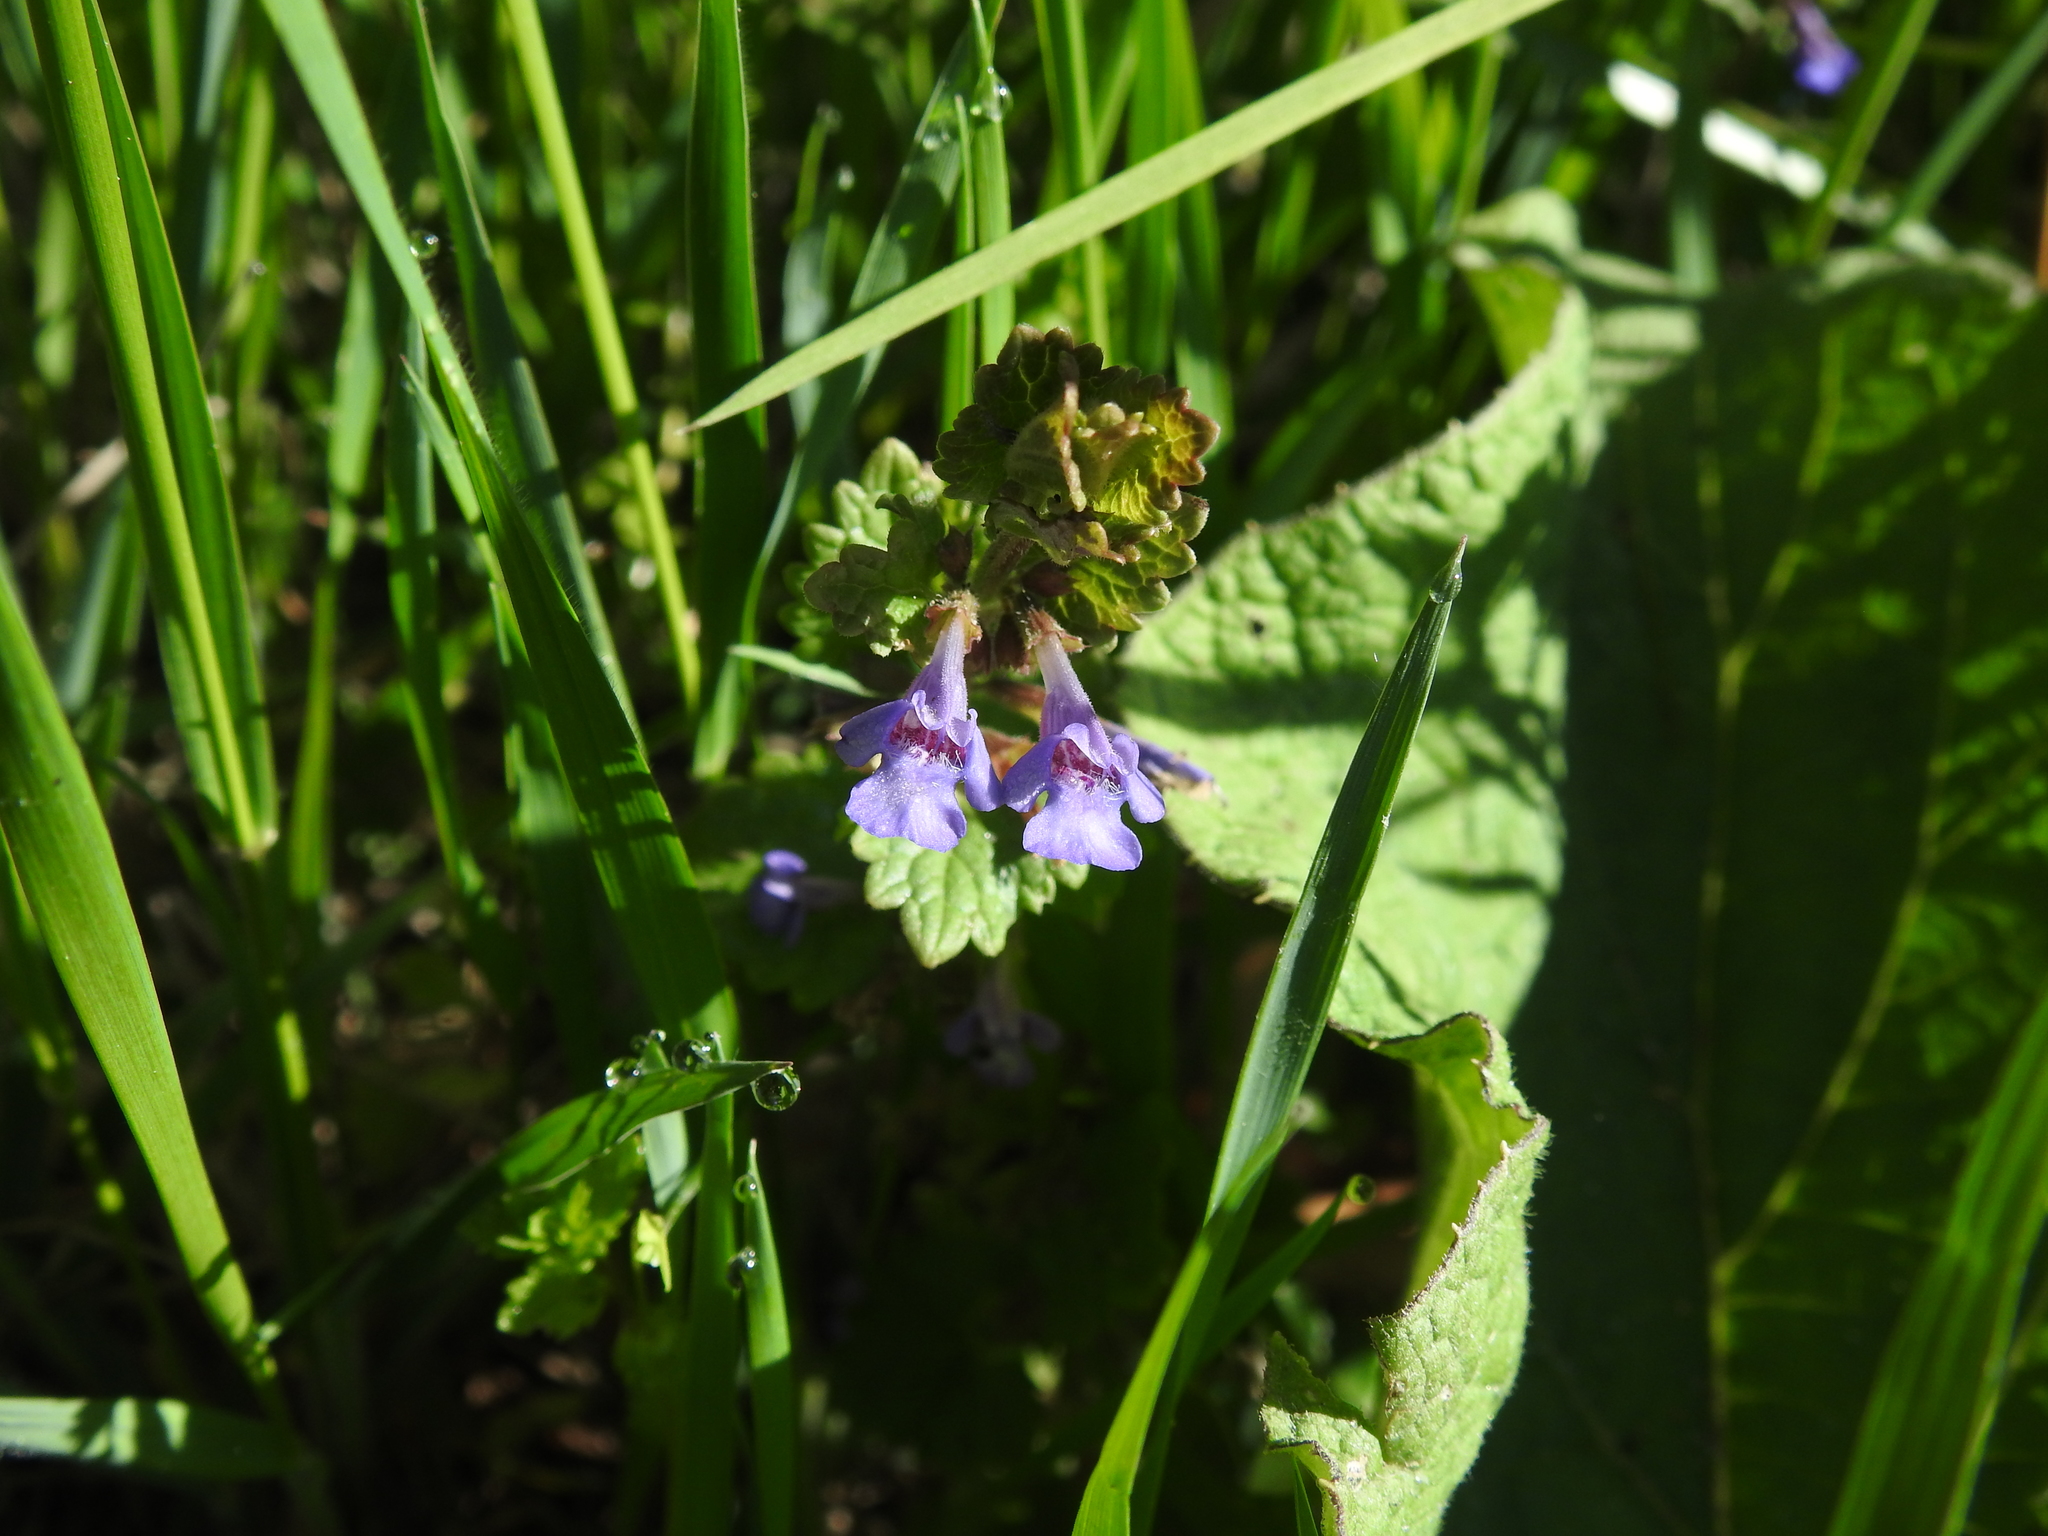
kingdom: Plantae
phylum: Tracheophyta
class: Magnoliopsida
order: Lamiales
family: Lamiaceae
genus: Glechoma
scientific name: Glechoma hederacea
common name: Ground ivy
